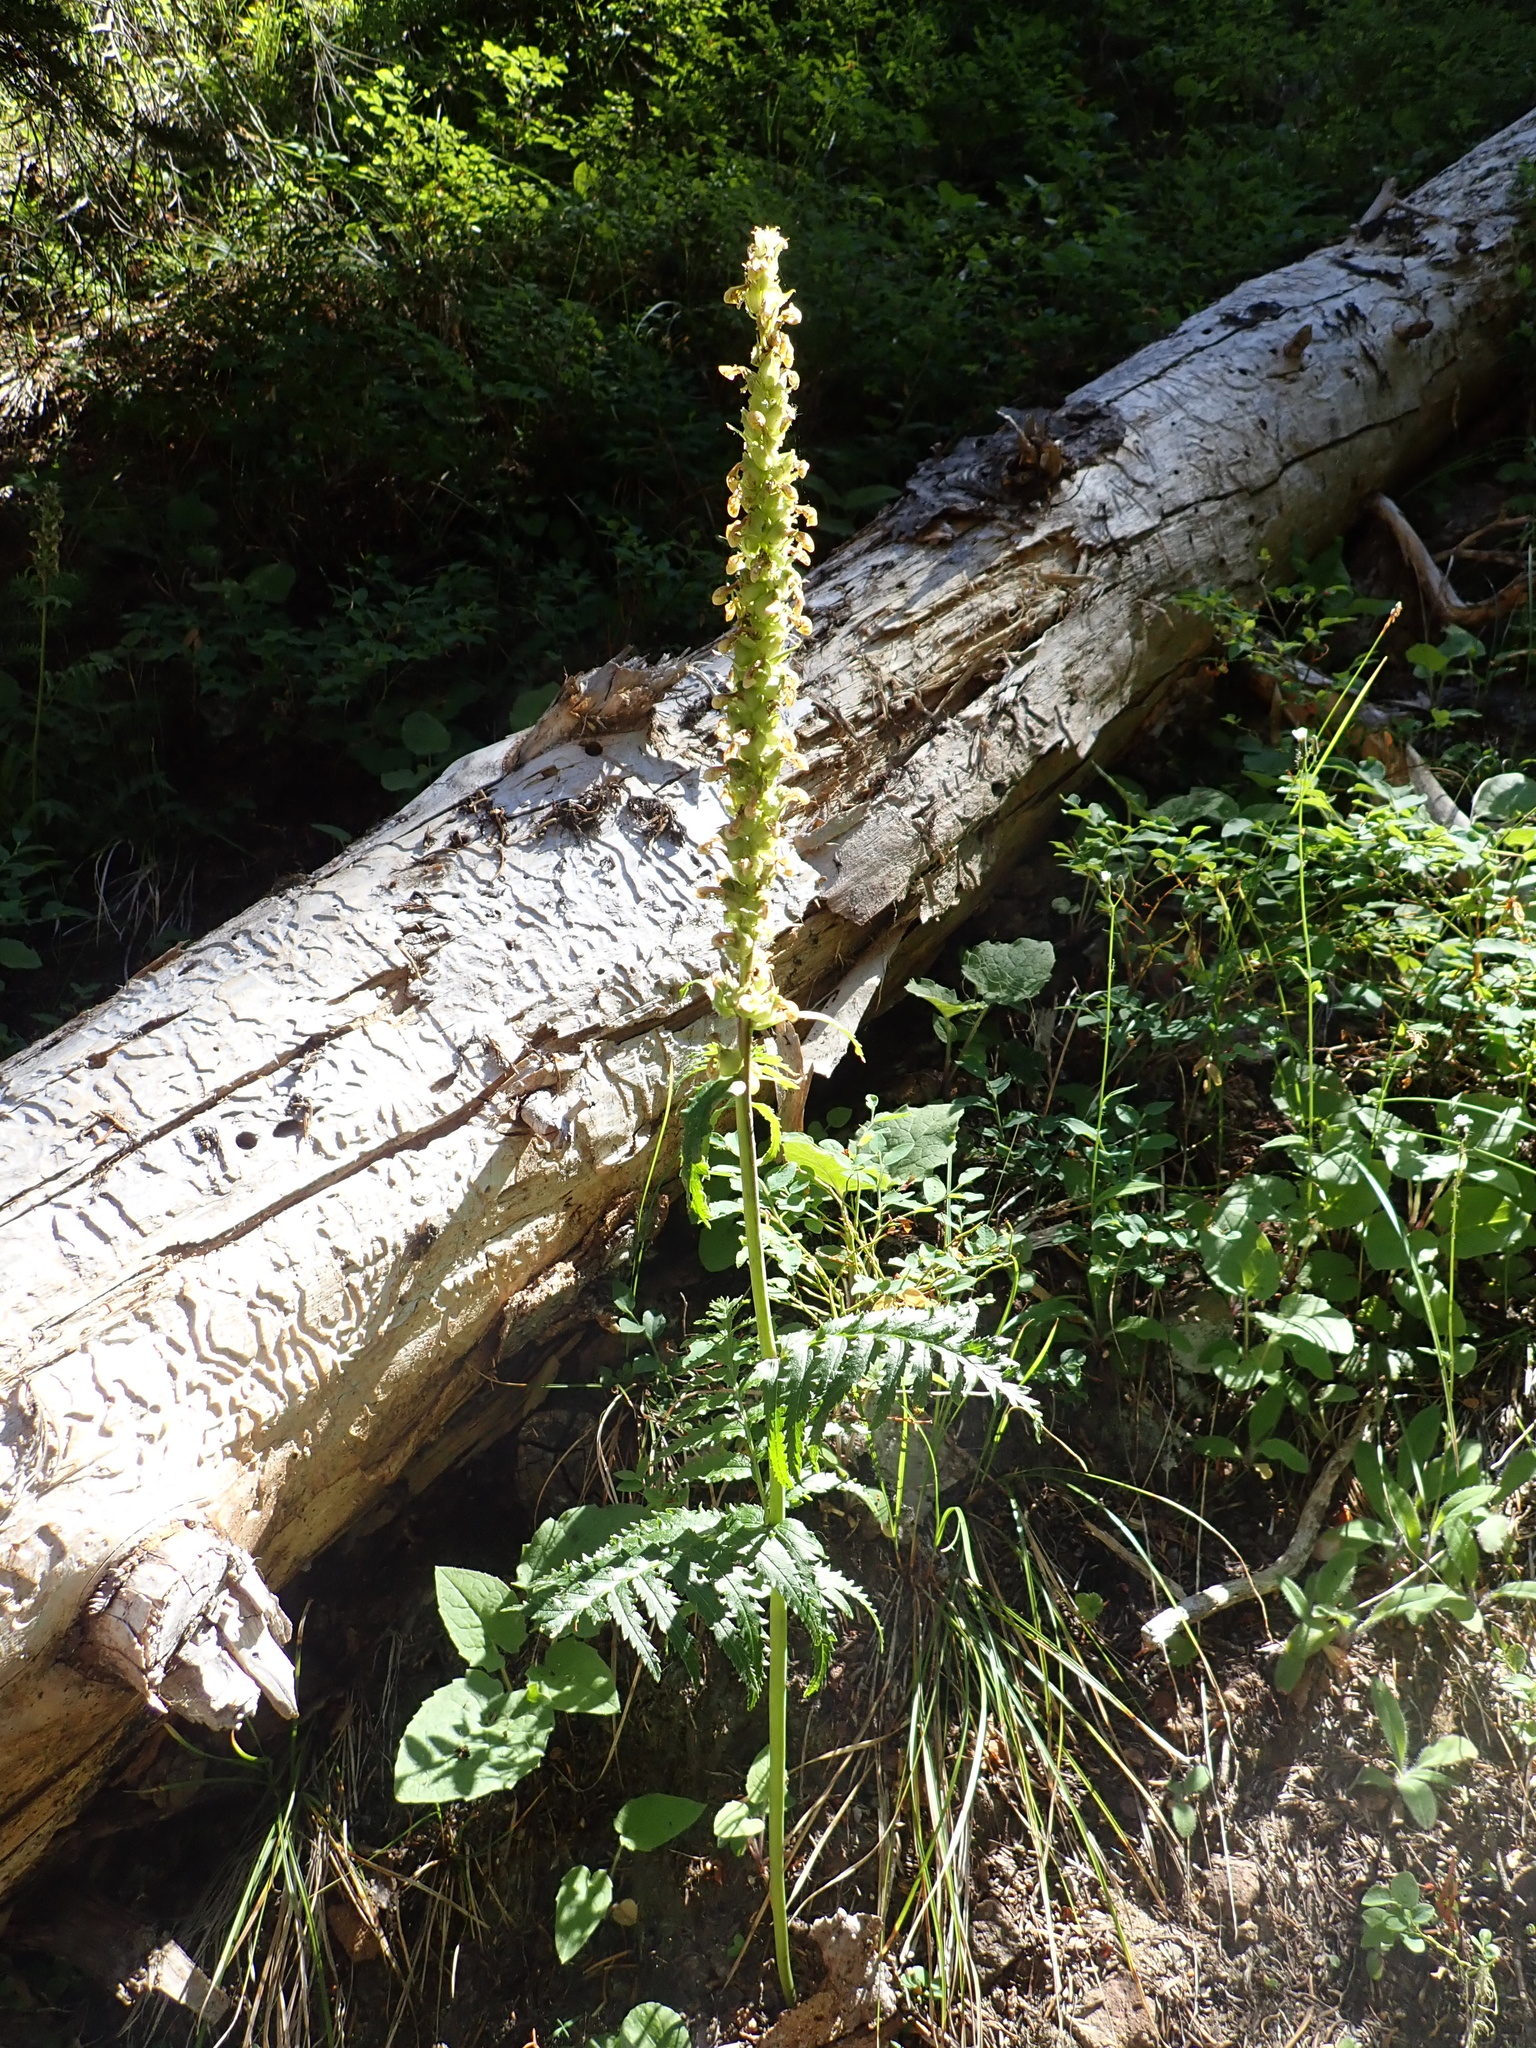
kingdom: Plantae
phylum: Tracheophyta
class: Magnoliopsida
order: Lamiales
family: Orobanchaceae
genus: Pedicularis
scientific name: Pedicularis bracteosa
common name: Bracted lousewort
